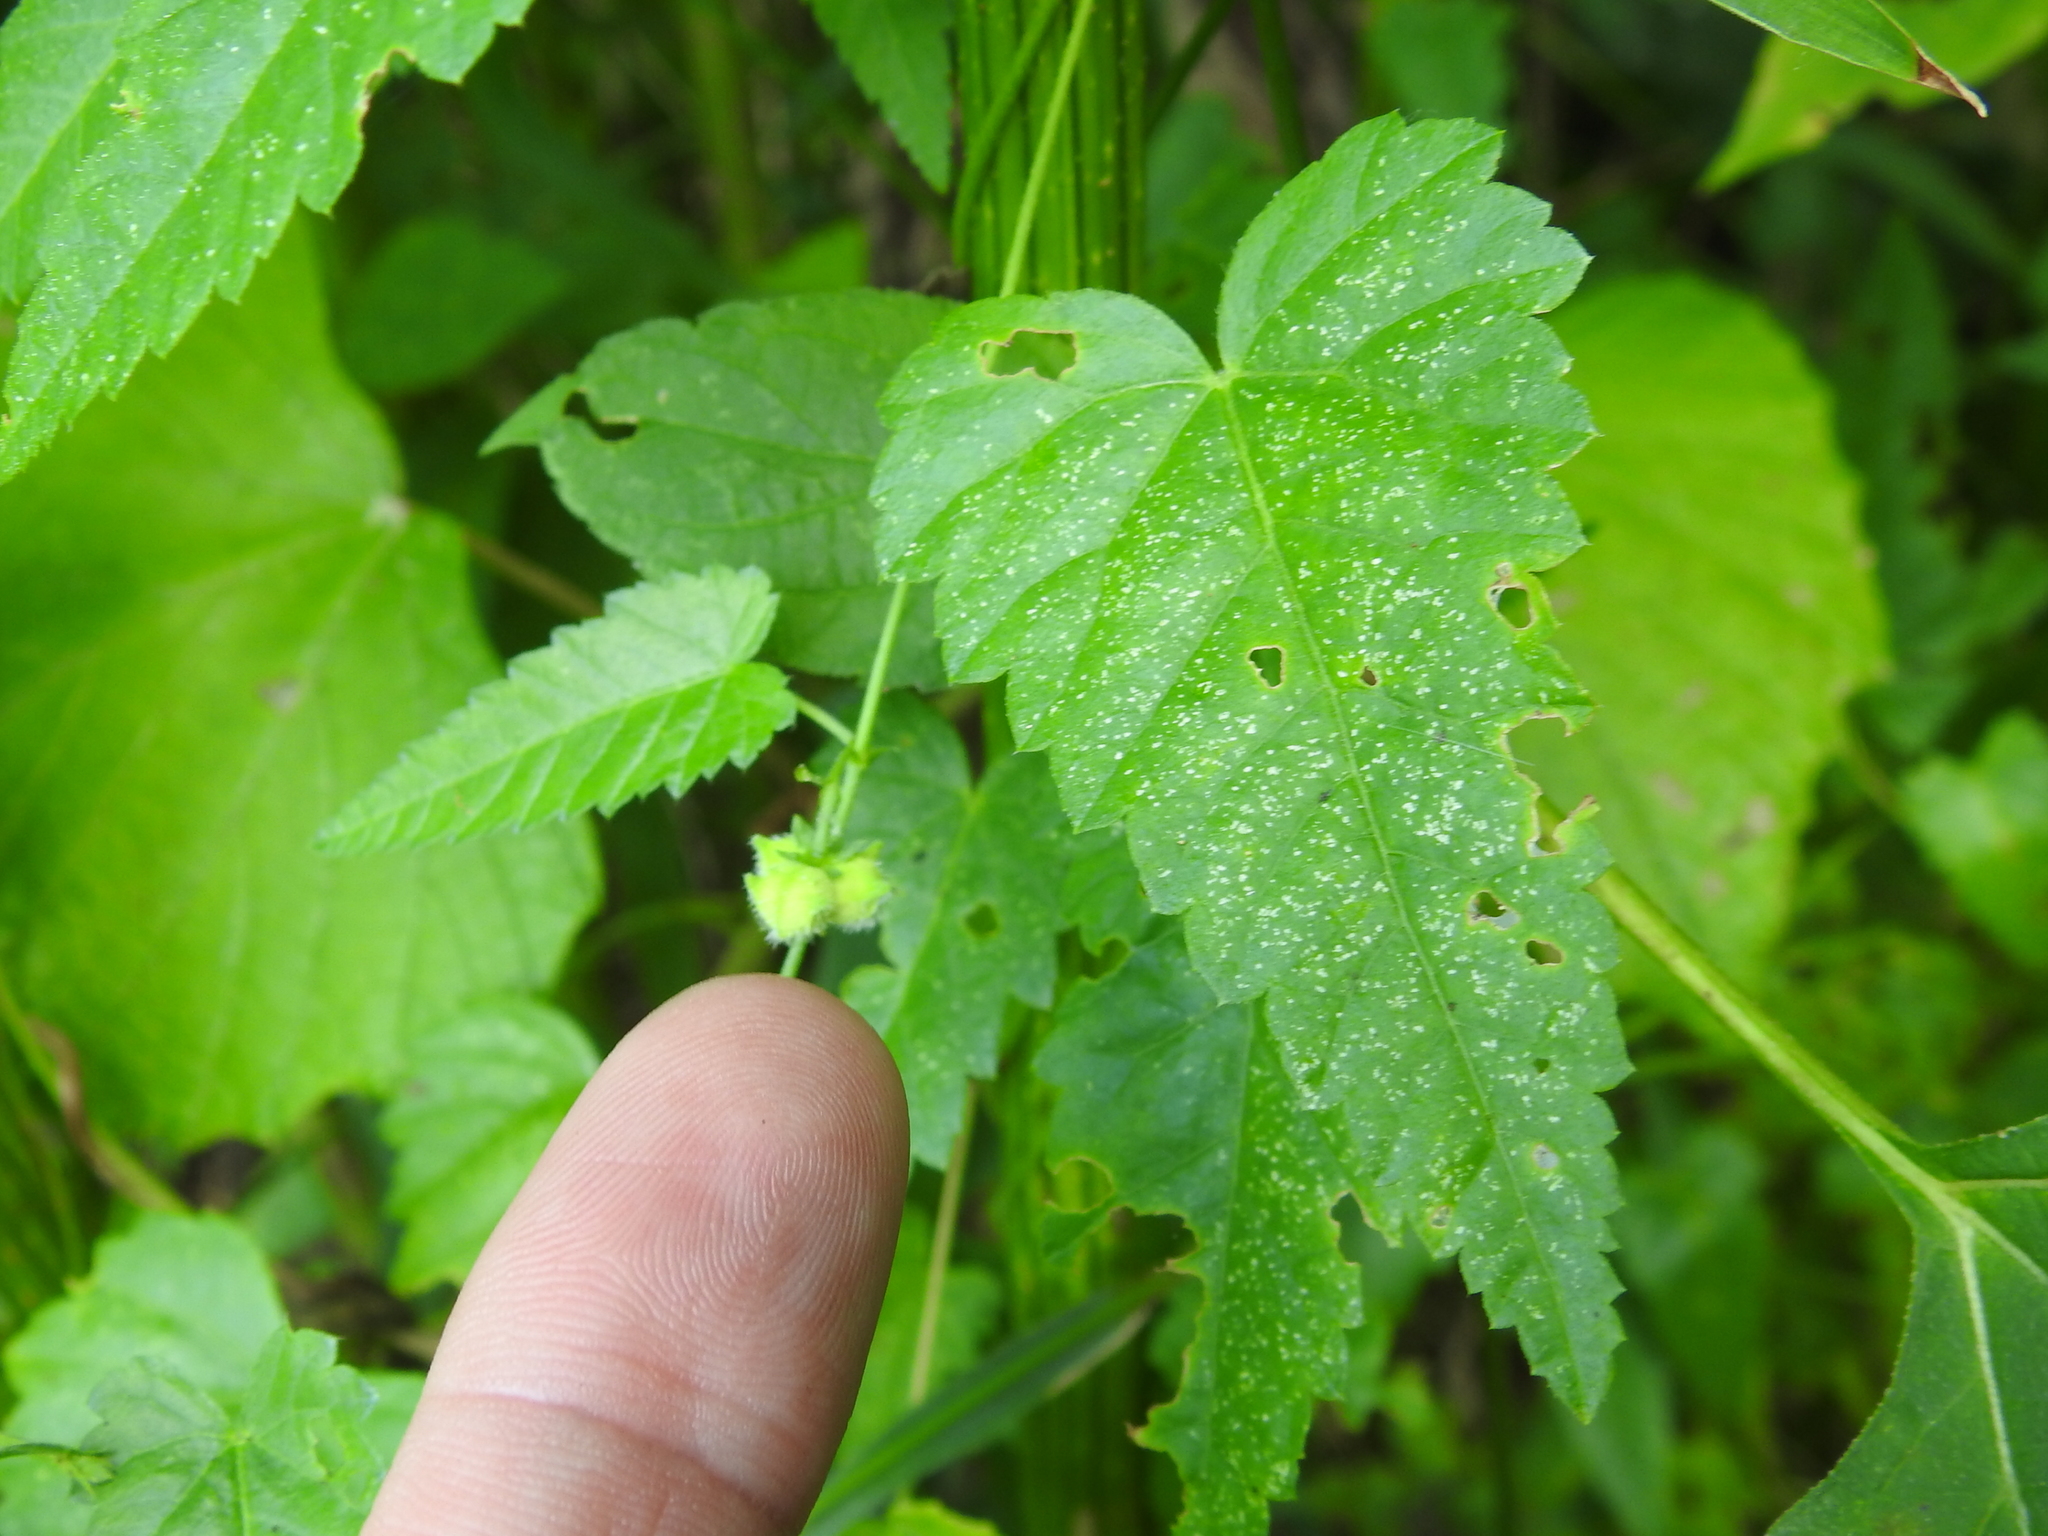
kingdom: Plantae
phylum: Tracheophyta
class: Magnoliopsida
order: Malpighiales
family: Euphorbiaceae
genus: Tragia
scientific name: Tragia urticifolia
